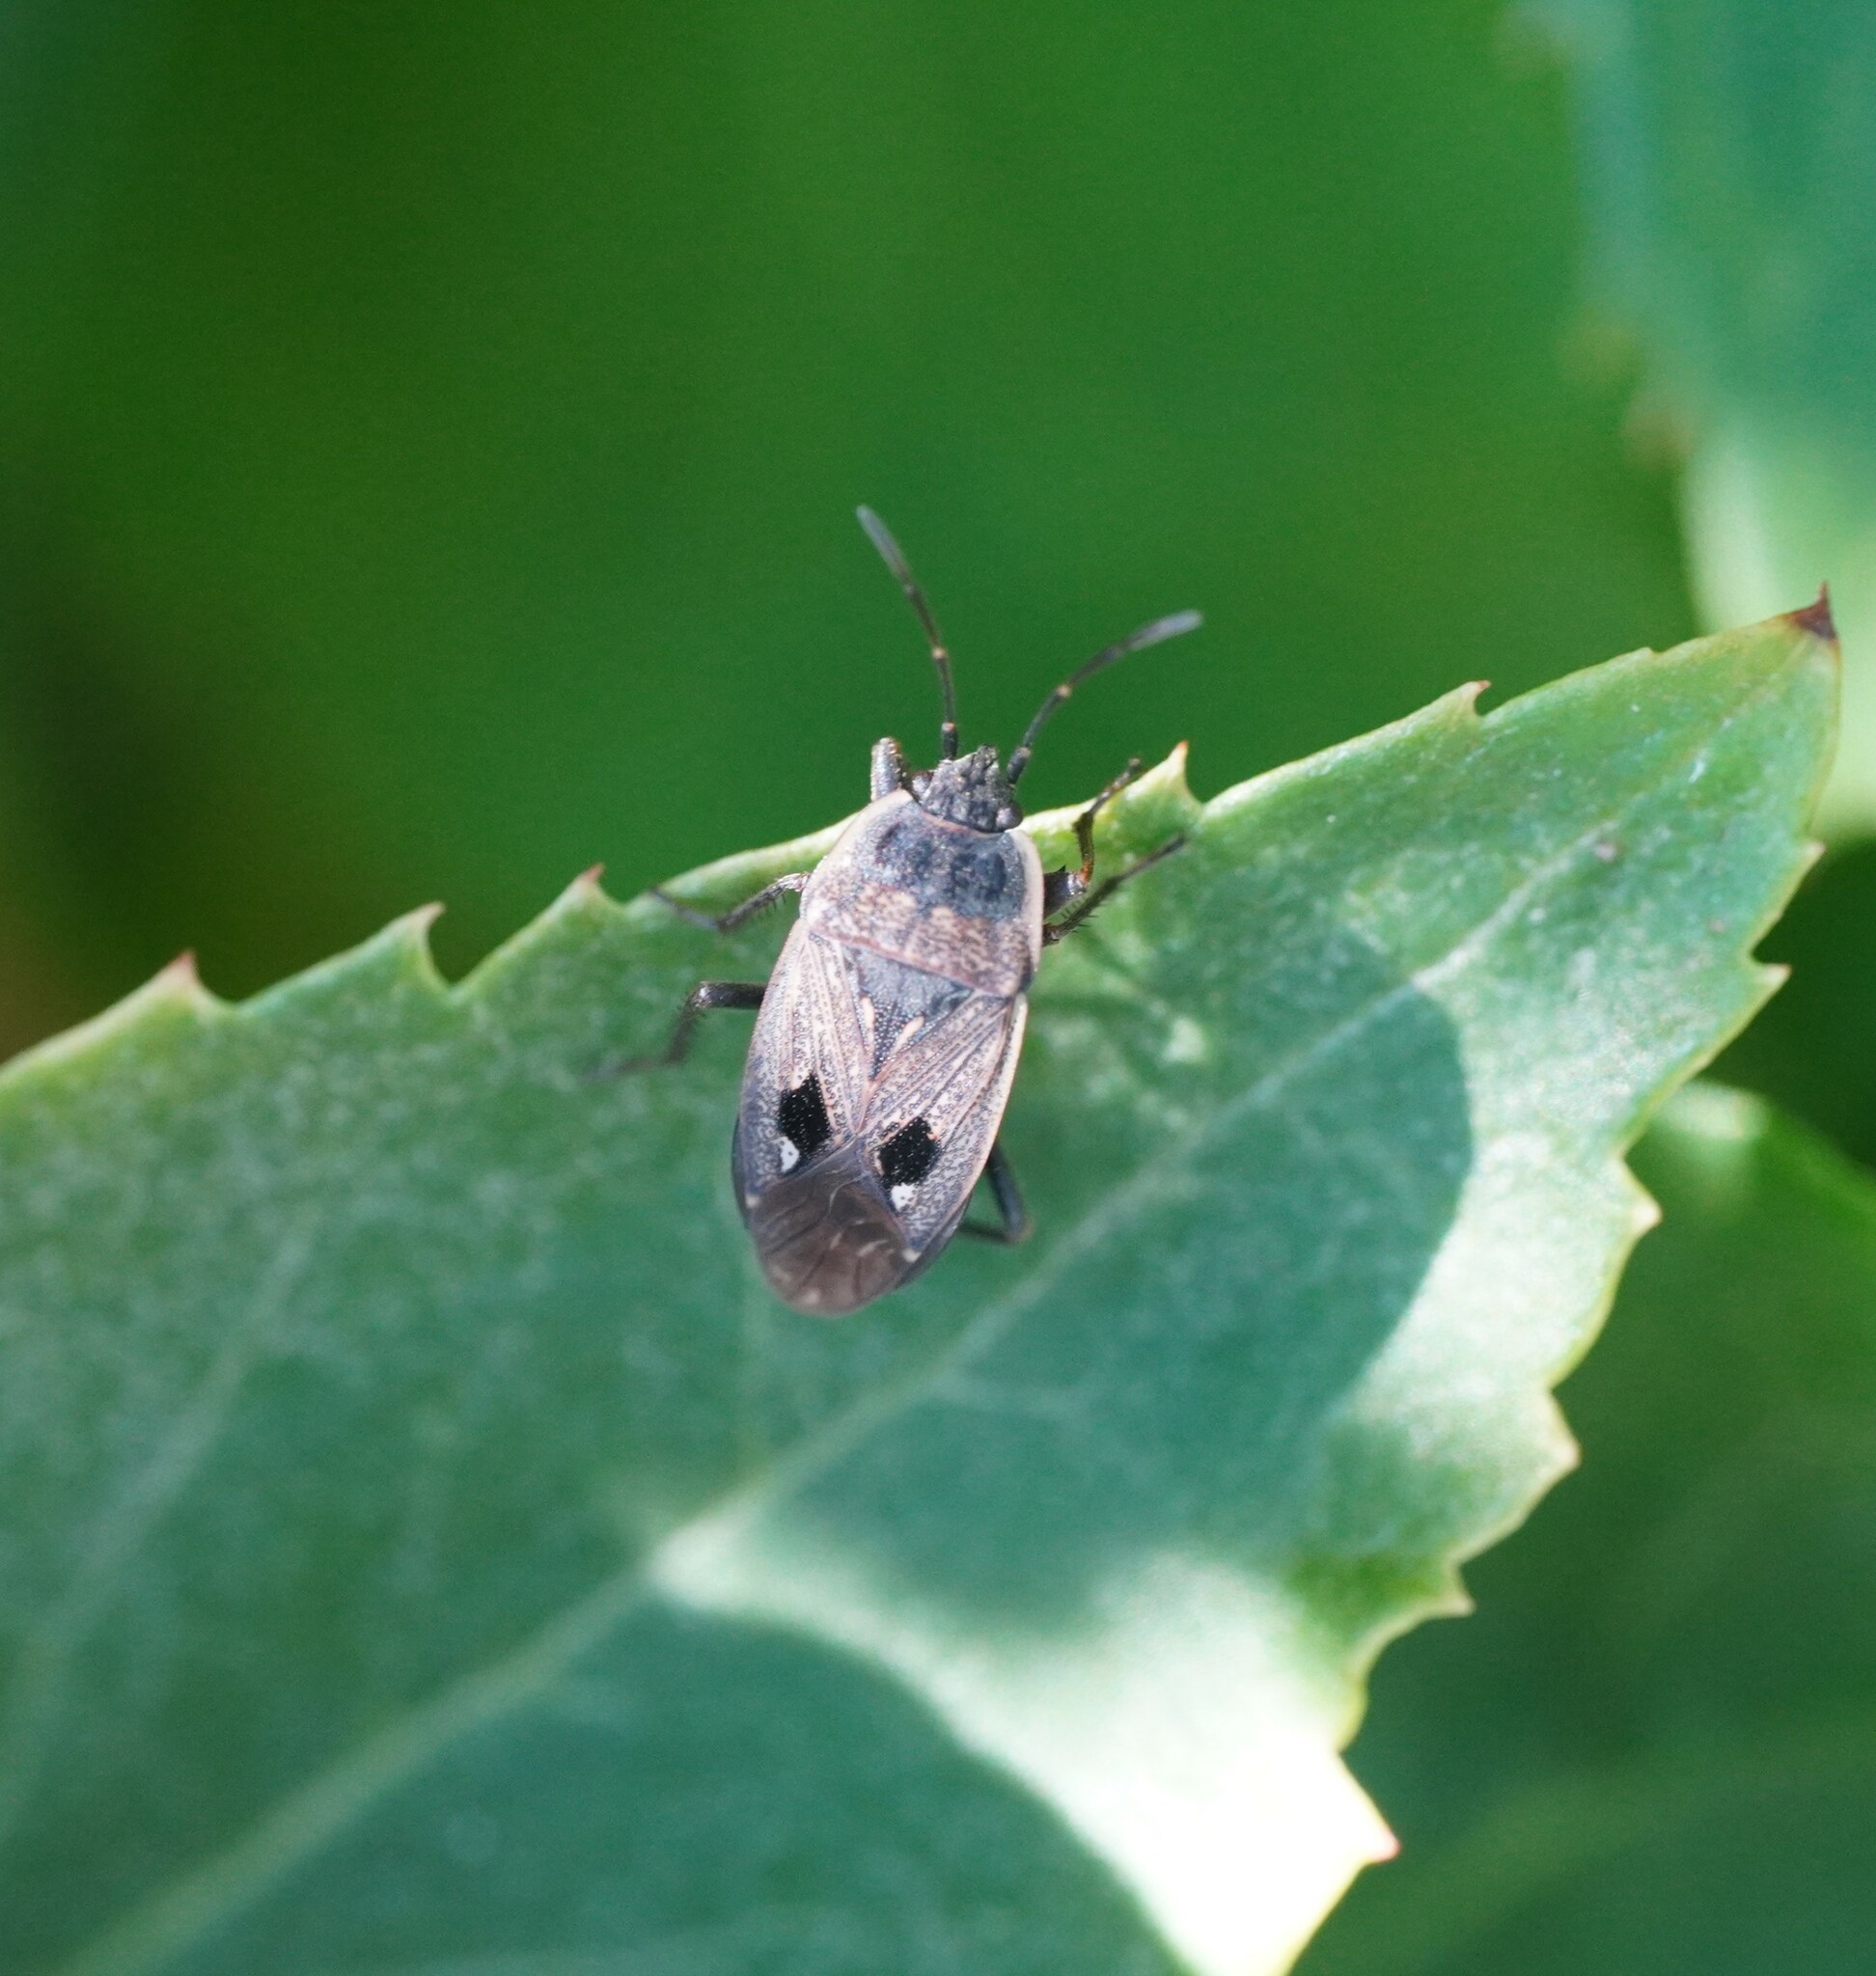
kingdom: Animalia
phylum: Arthropoda
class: Insecta
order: Hemiptera
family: Rhyparochromidae
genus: Graptopeltus
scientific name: Graptopeltus lynceus
